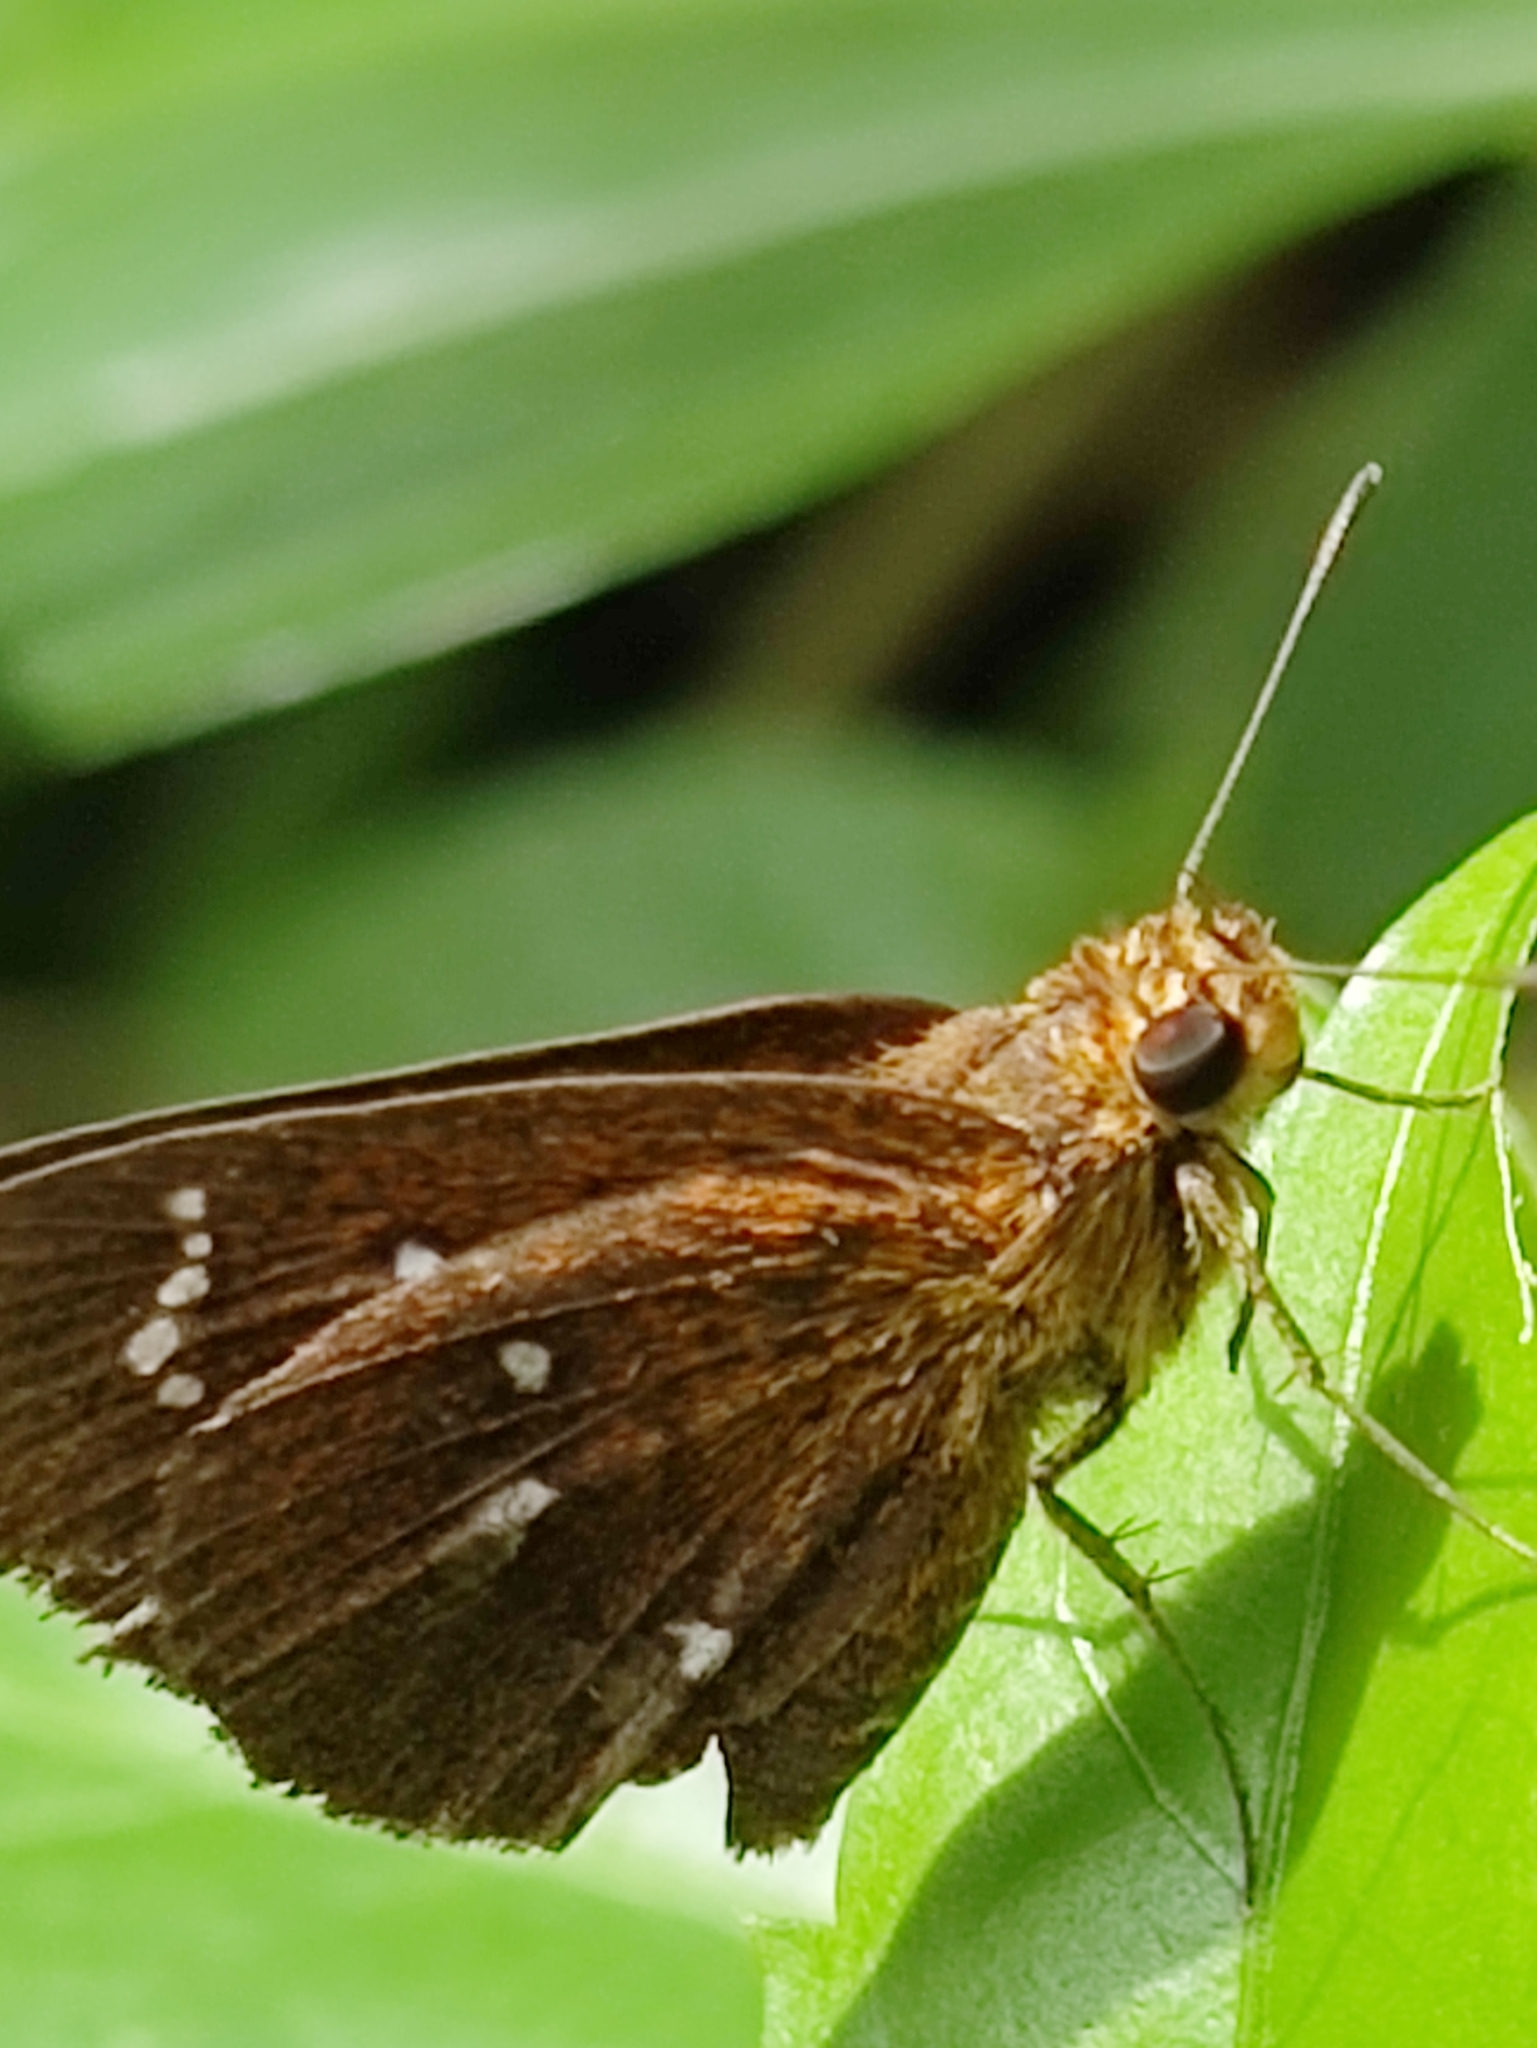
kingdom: Animalia
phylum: Arthropoda
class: Insecta
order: Lepidoptera
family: Hesperiidae
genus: Iambrix
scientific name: Iambrix salsala
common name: Chestnut bob
